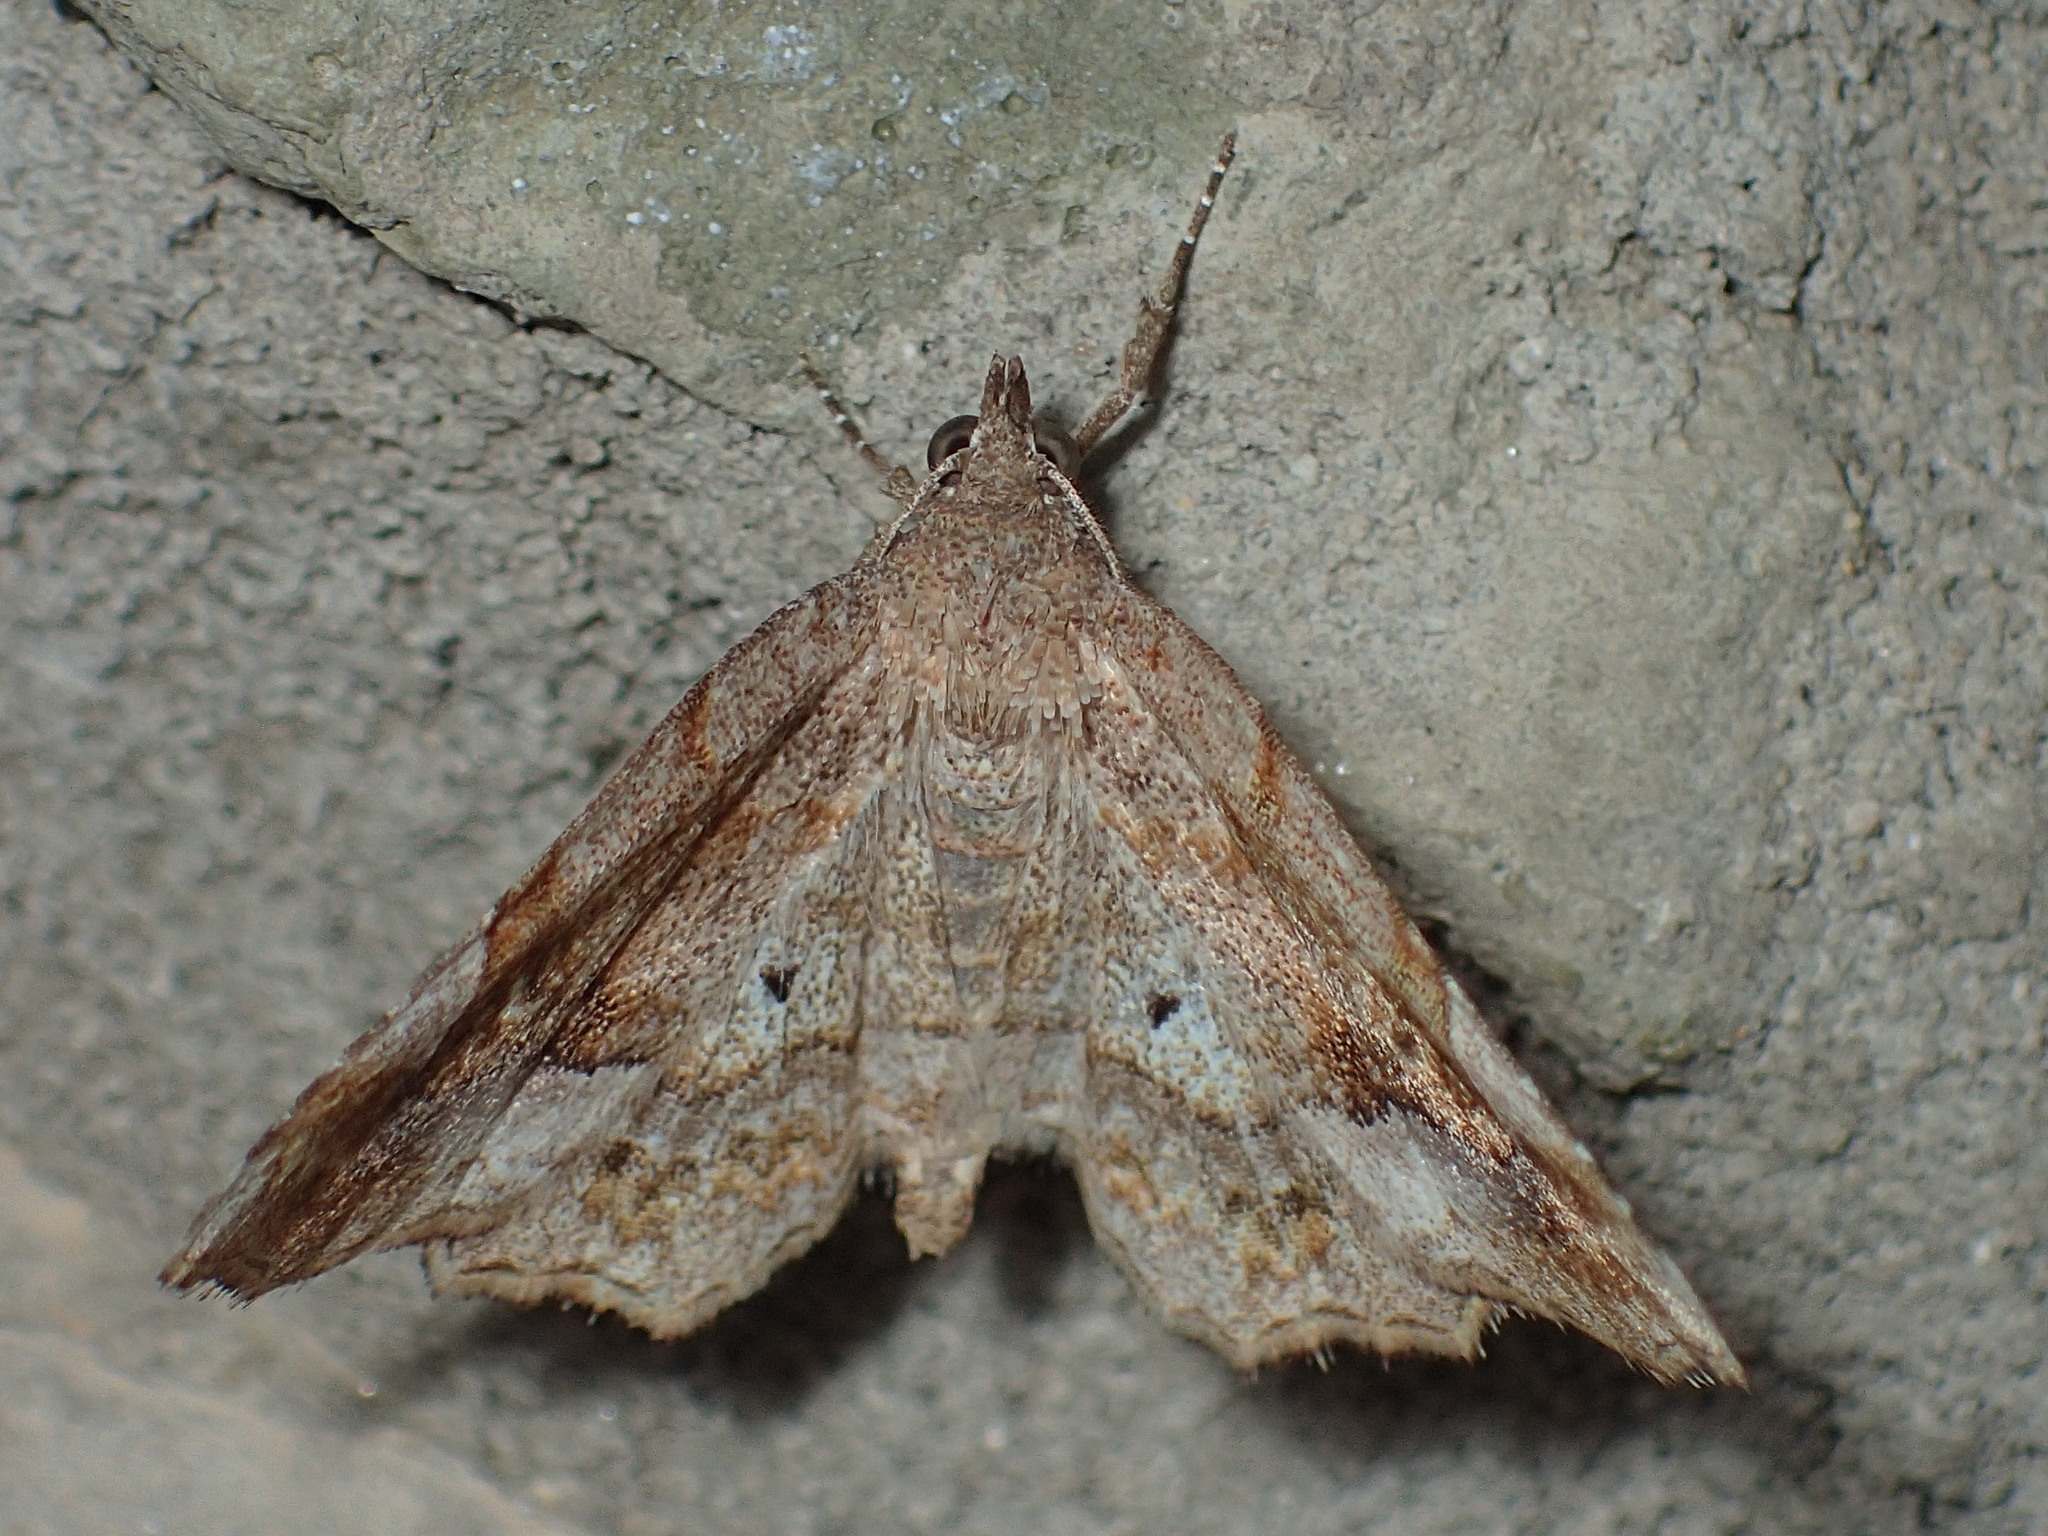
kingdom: Animalia
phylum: Arthropoda
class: Insecta
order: Lepidoptera
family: Erebidae
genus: Pangrapta
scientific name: Pangrapta decoralis
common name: Decorated owlet
